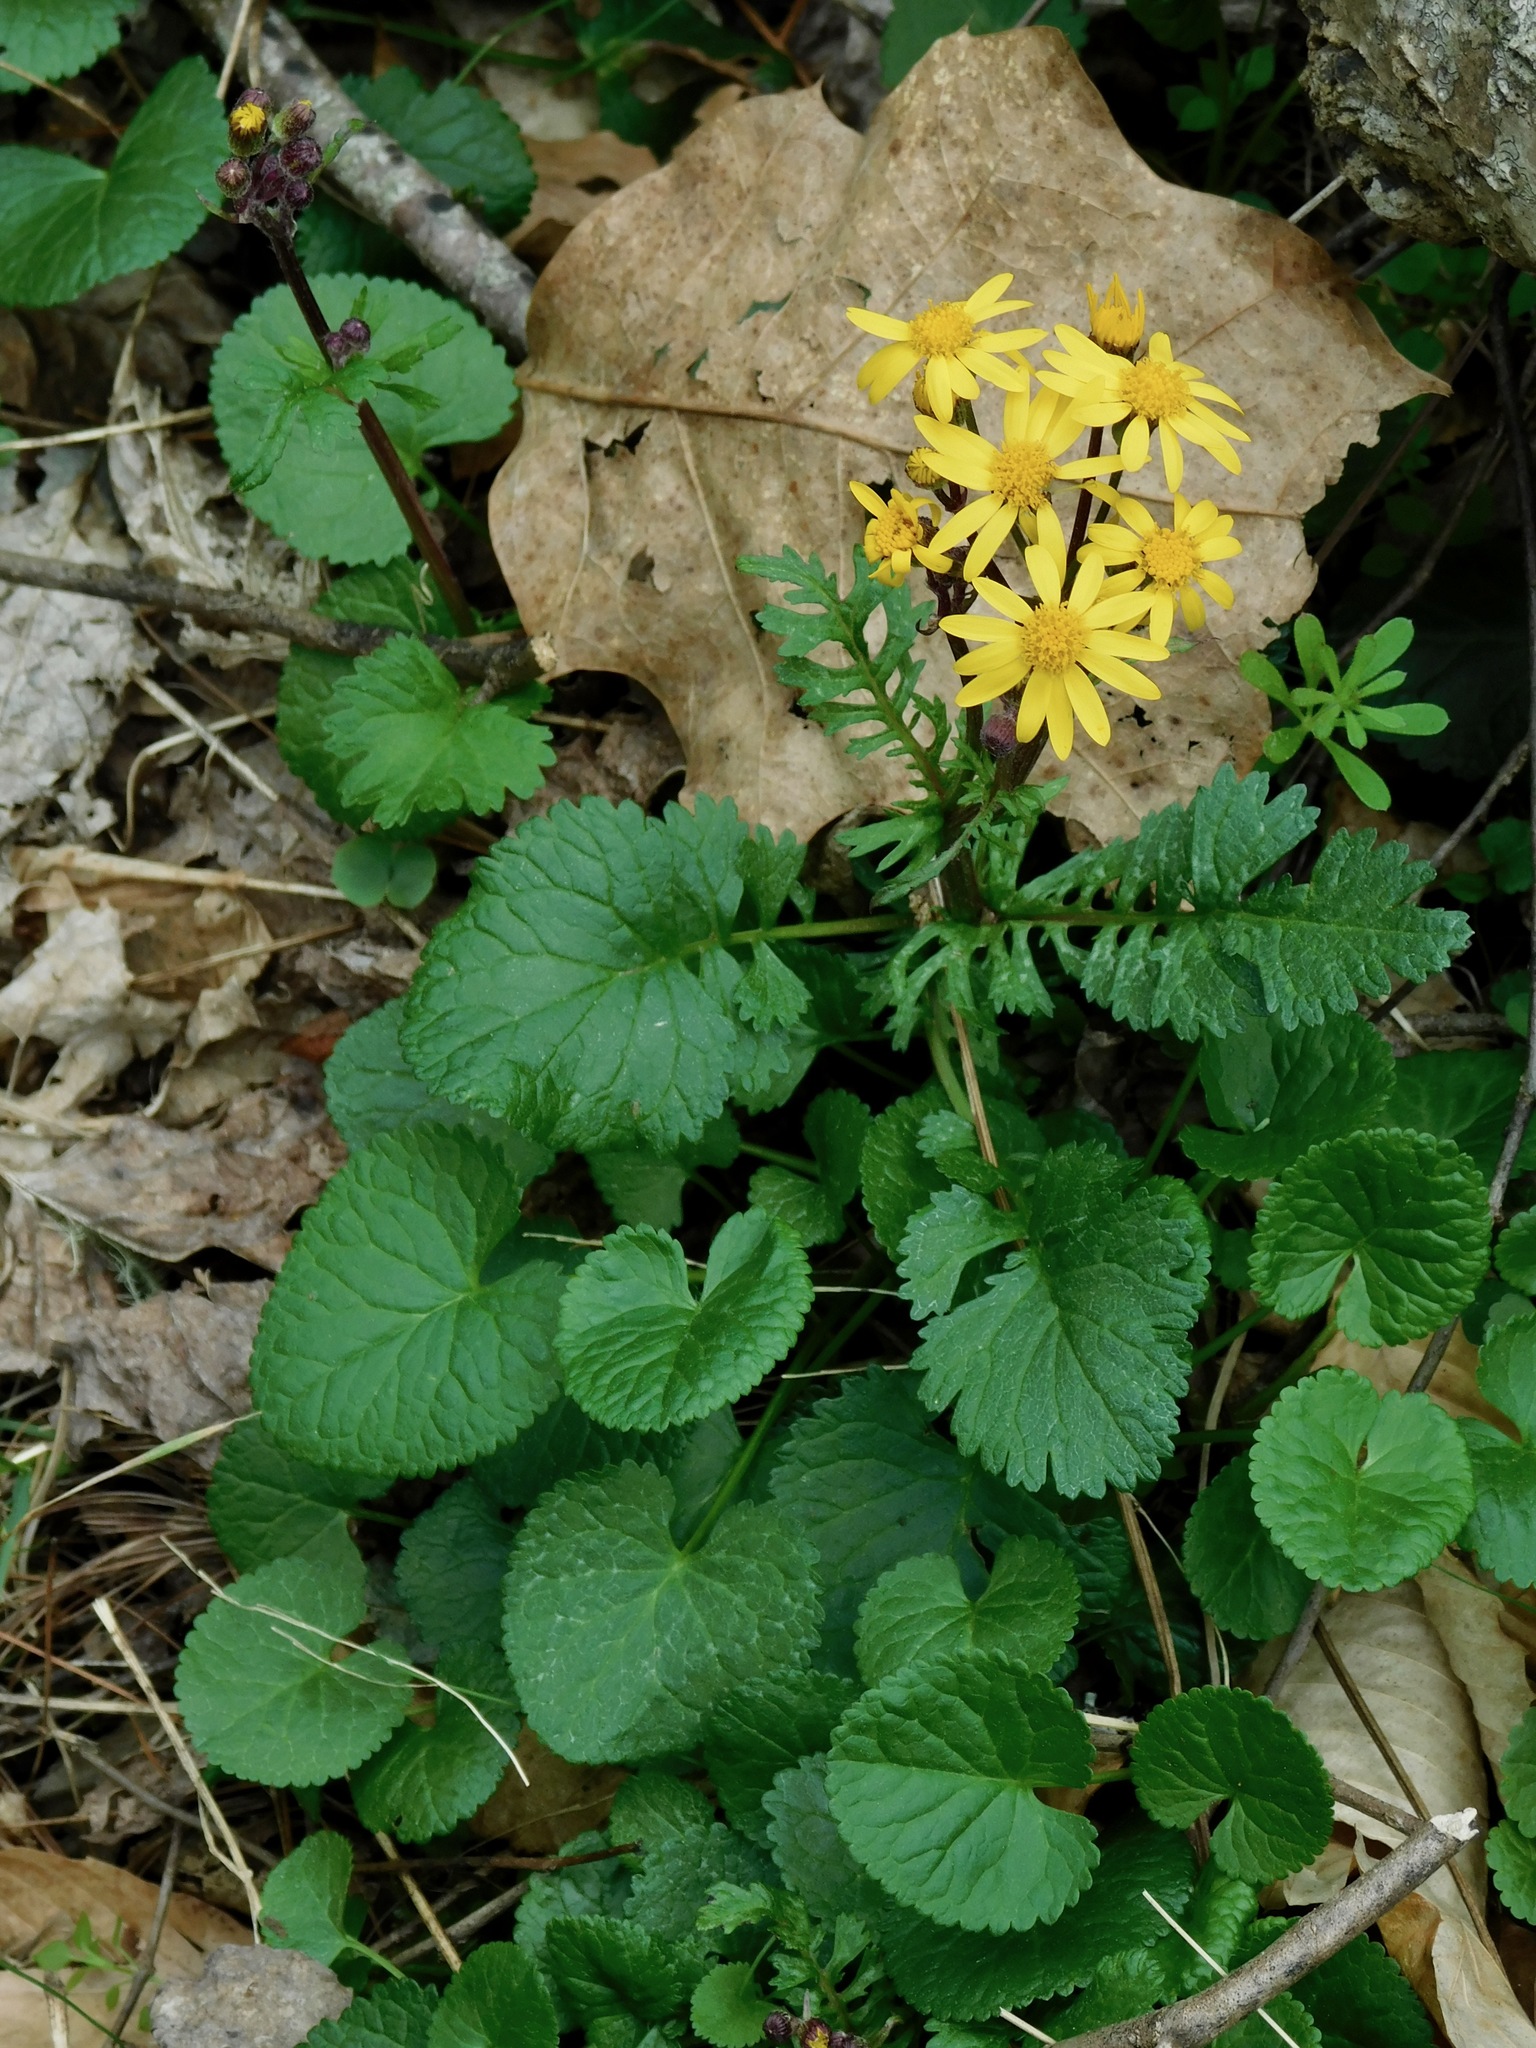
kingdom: Plantae
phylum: Tracheophyta
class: Magnoliopsida
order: Asterales
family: Asteraceae
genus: Packera
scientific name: Packera aurea
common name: Golden groundsel
